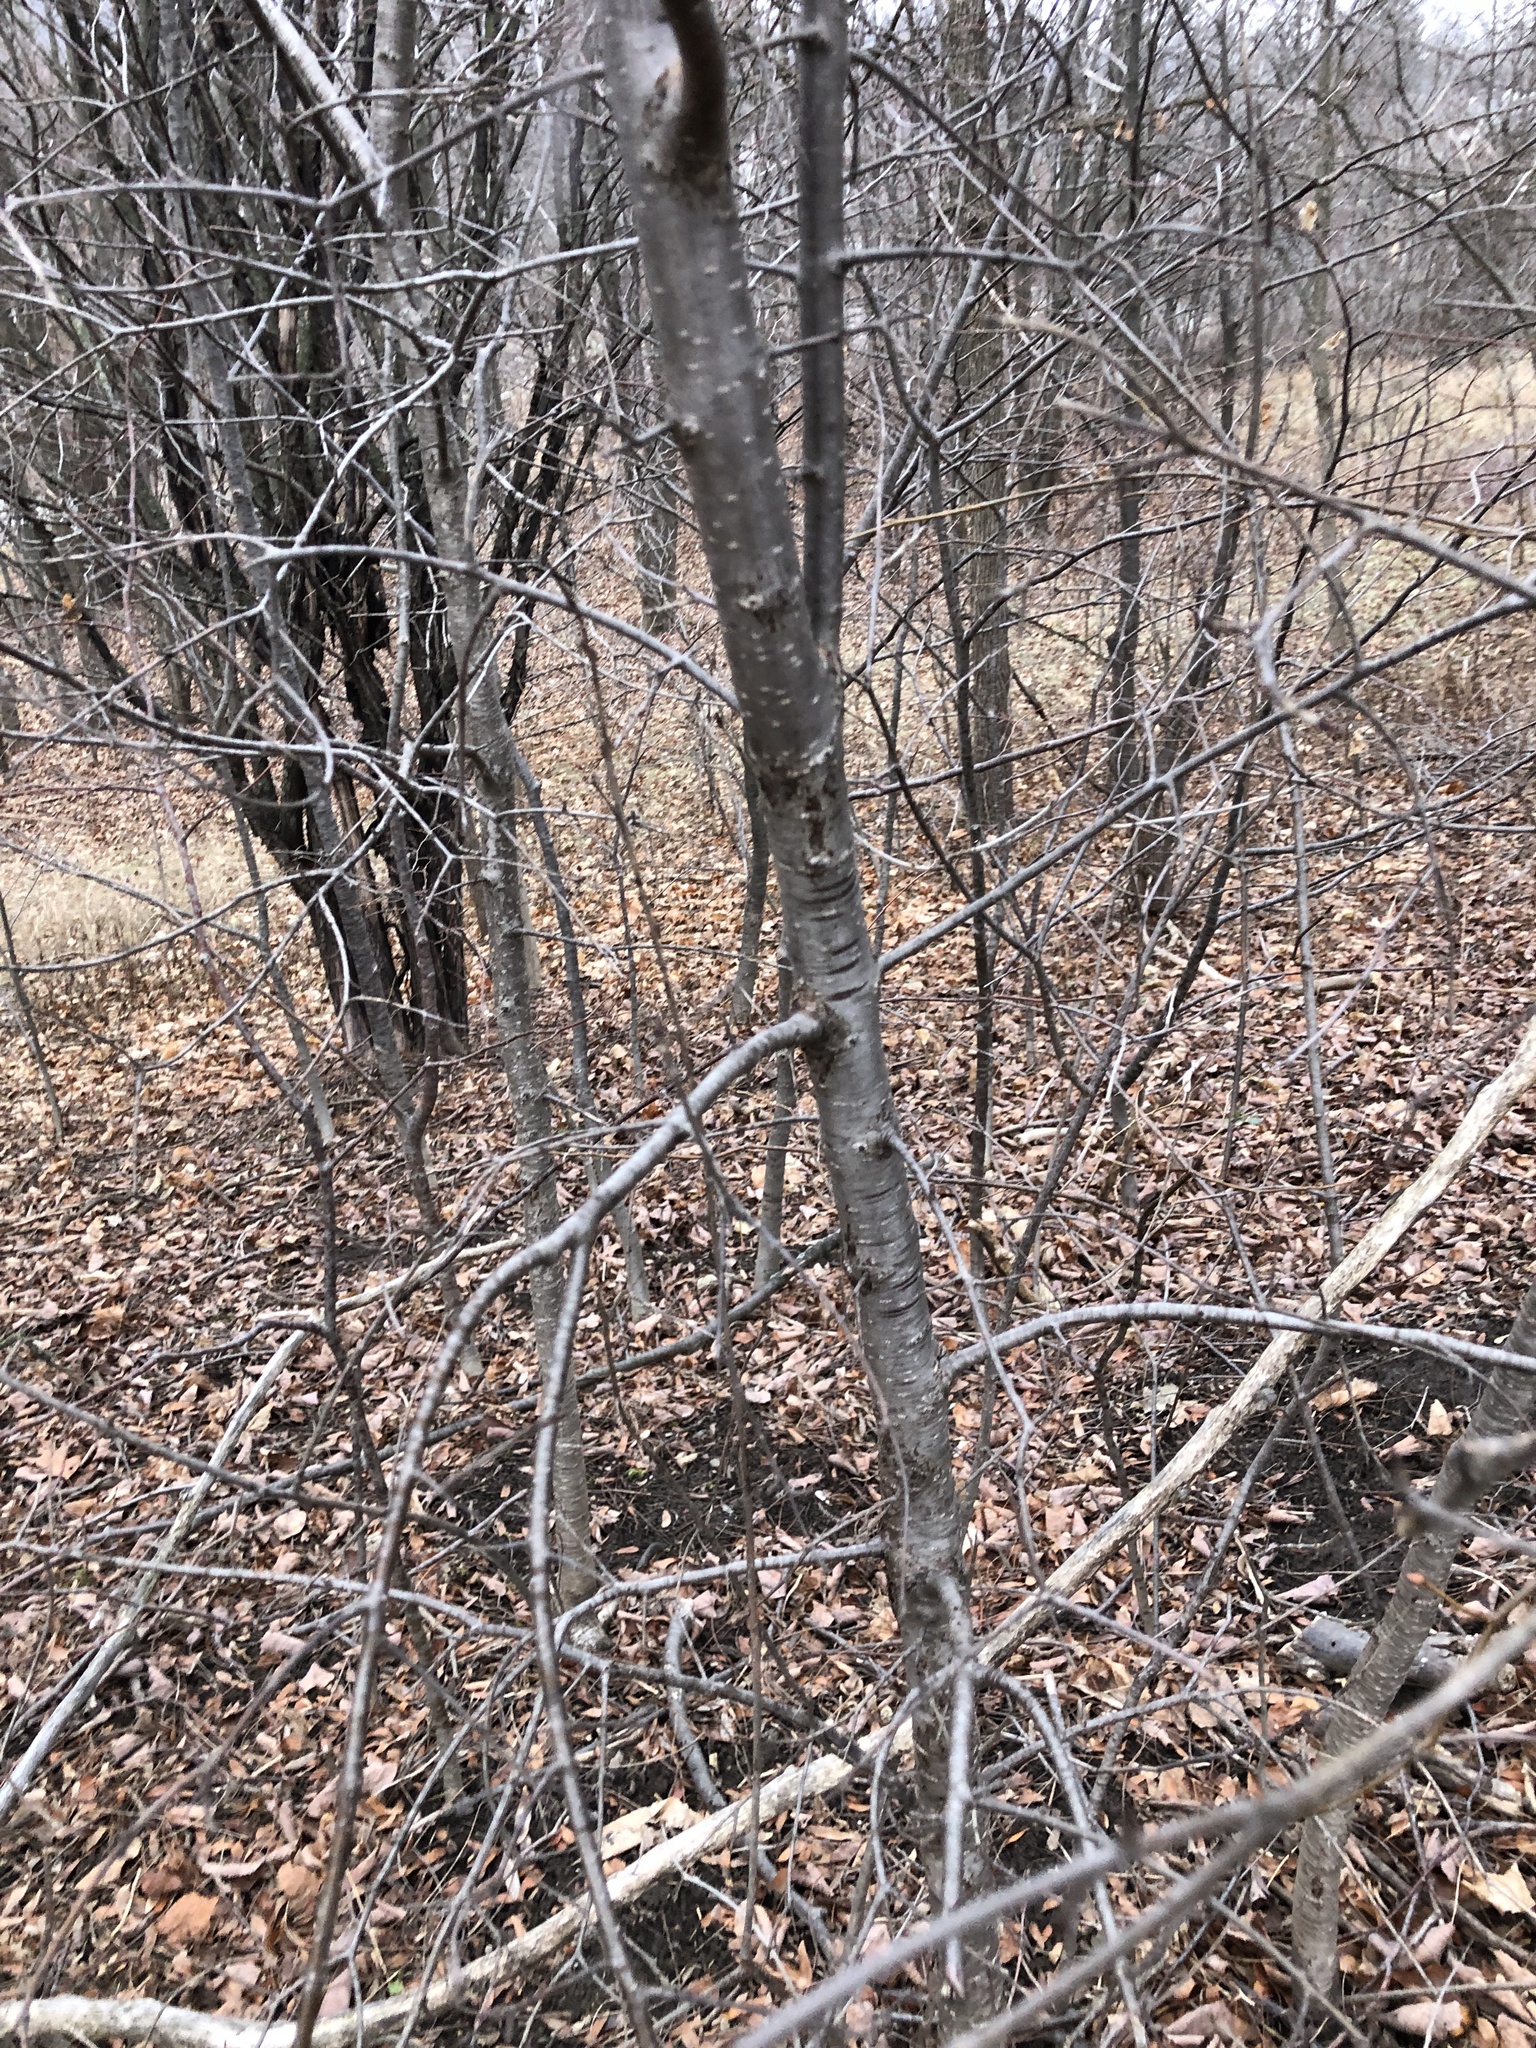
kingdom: Plantae
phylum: Tracheophyta
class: Magnoliopsida
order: Rosales
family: Rhamnaceae
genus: Rhamnus
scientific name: Rhamnus cathartica
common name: Common buckthorn
